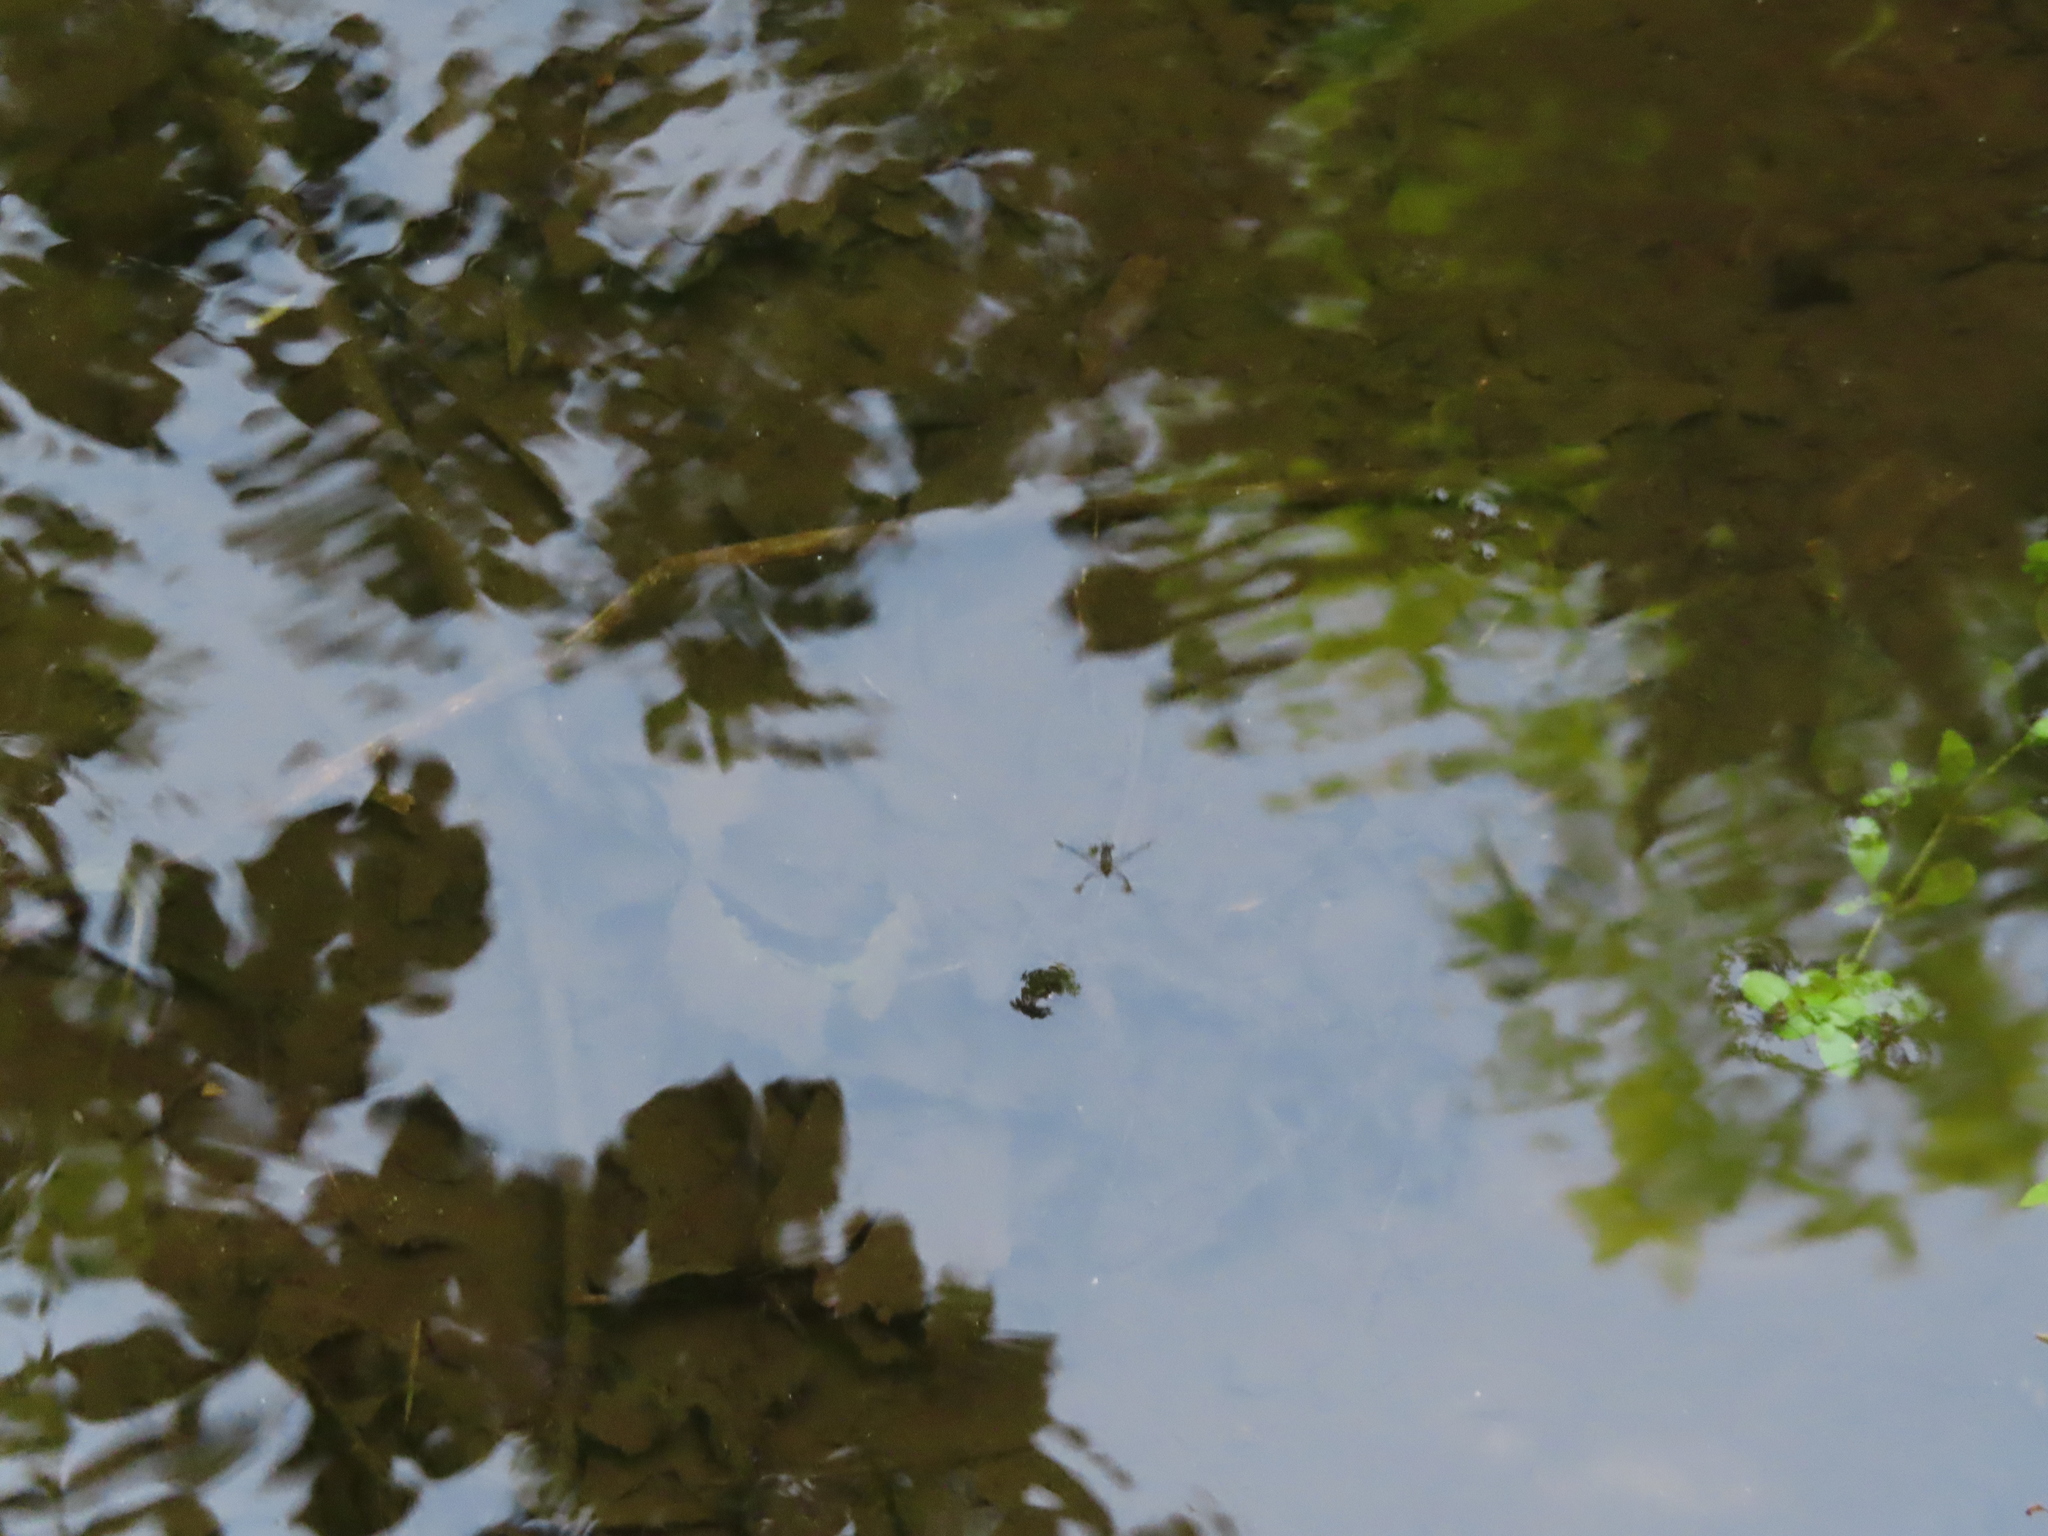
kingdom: Animalia
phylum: Arthropoda
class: Insecta
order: Hemiptera
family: Gerridae
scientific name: Gerridae
